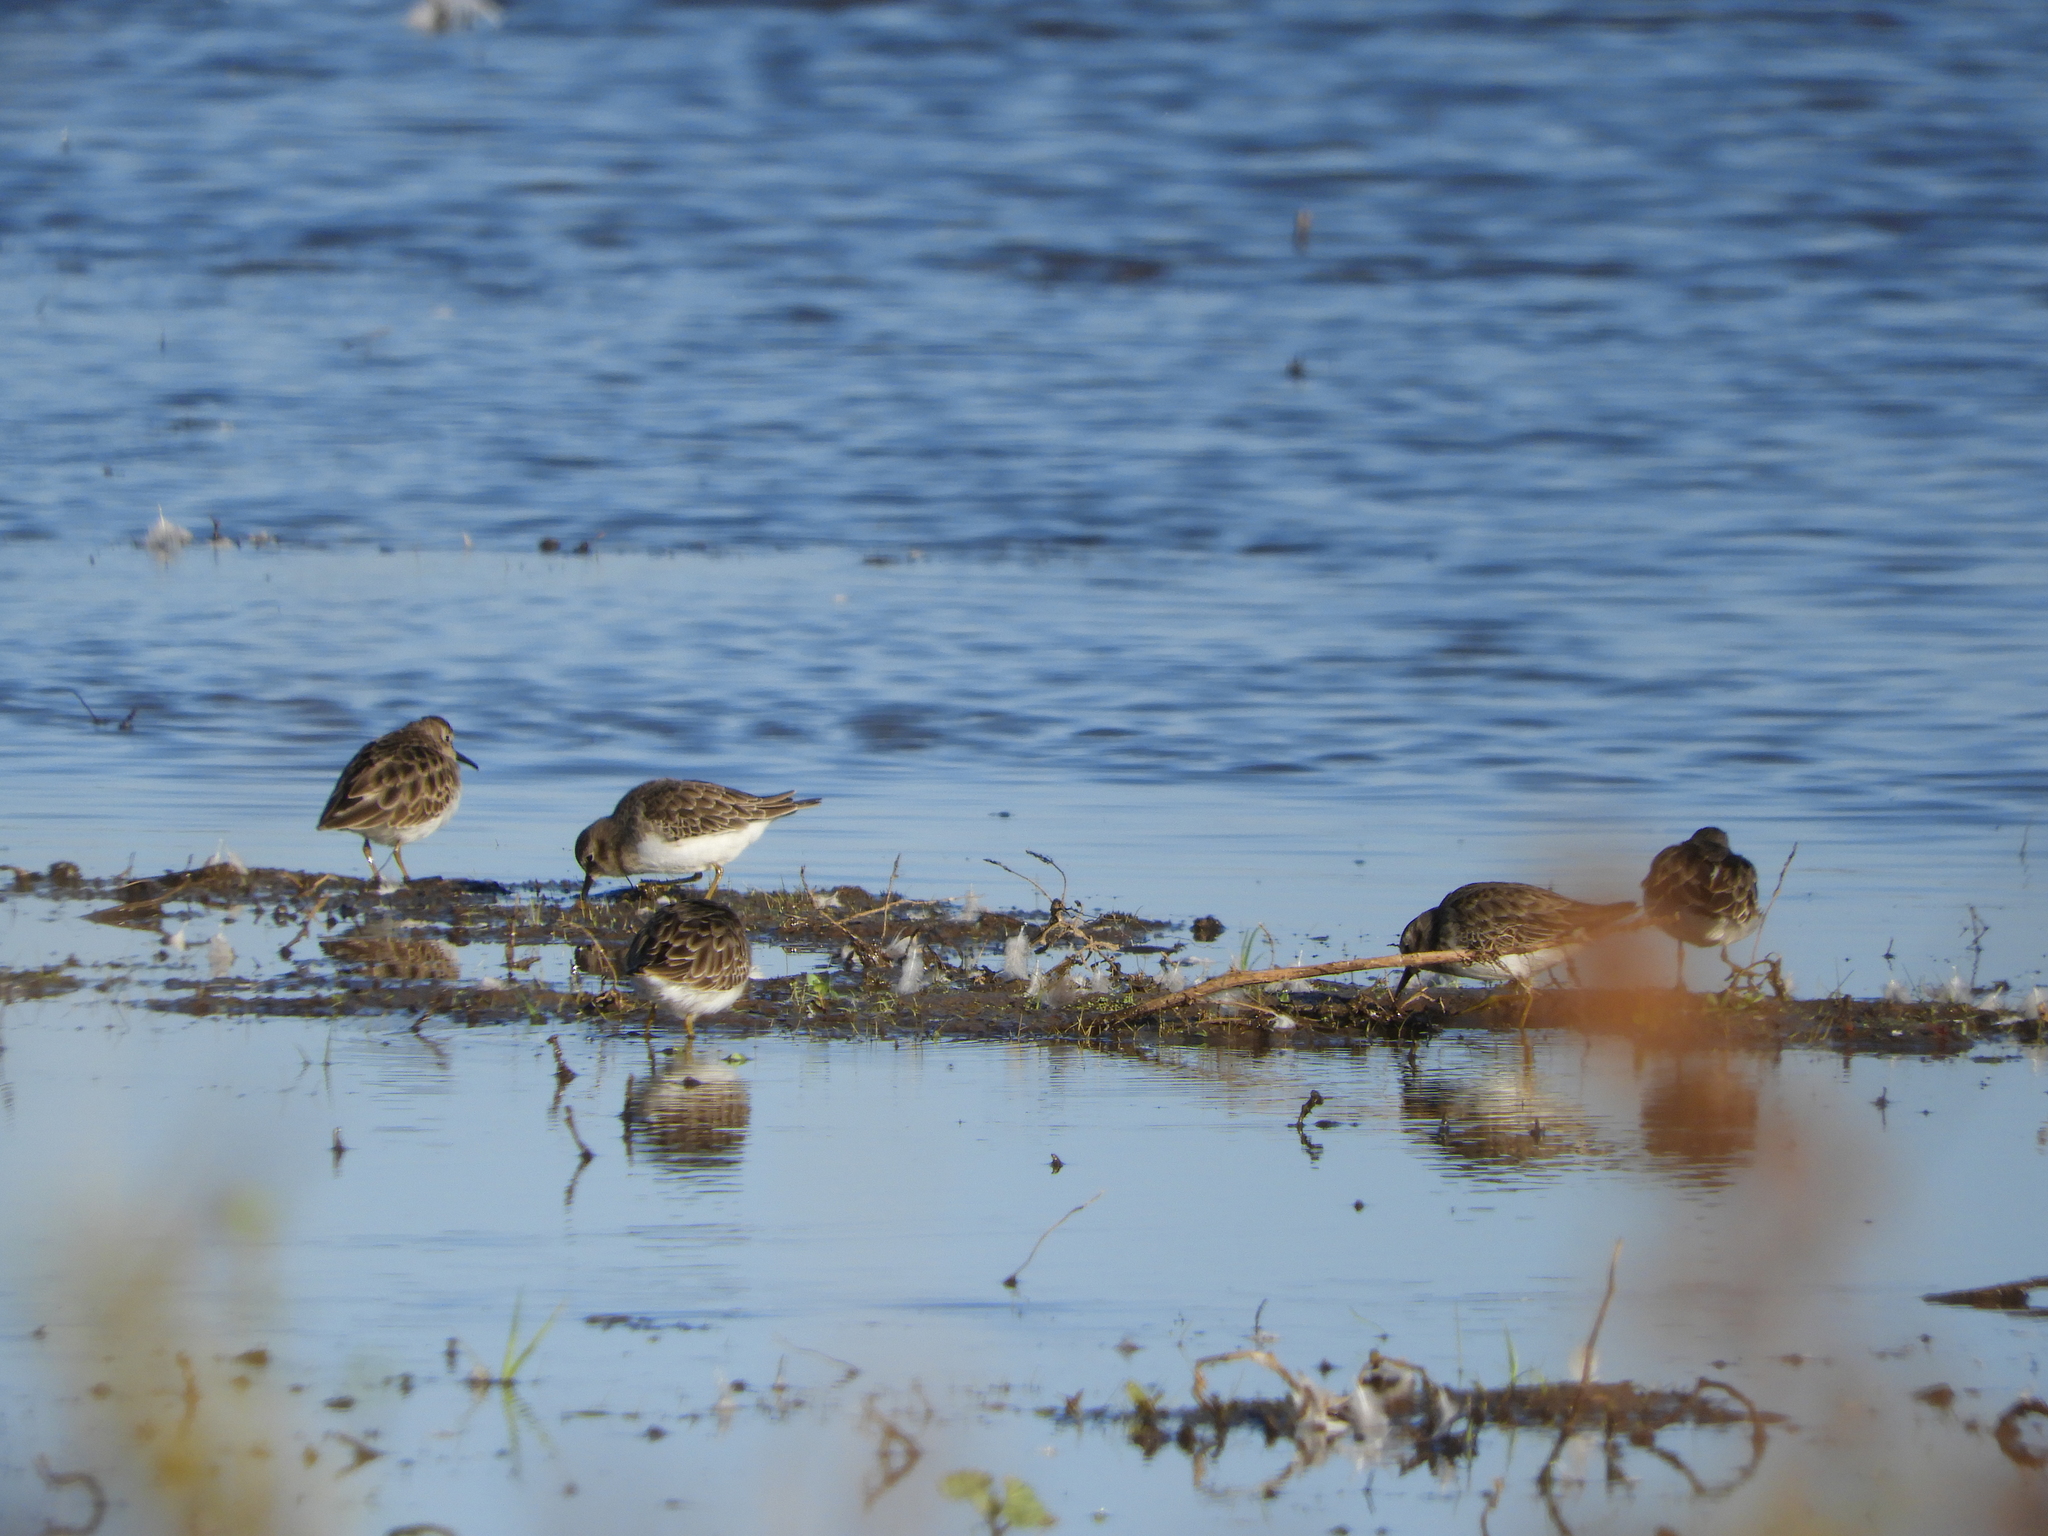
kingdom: Animalia
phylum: Chordata
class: Aves
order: Charadriiformes
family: Scolopacidae
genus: Calidris
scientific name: Calidris minutilla
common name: Least sandpiper
